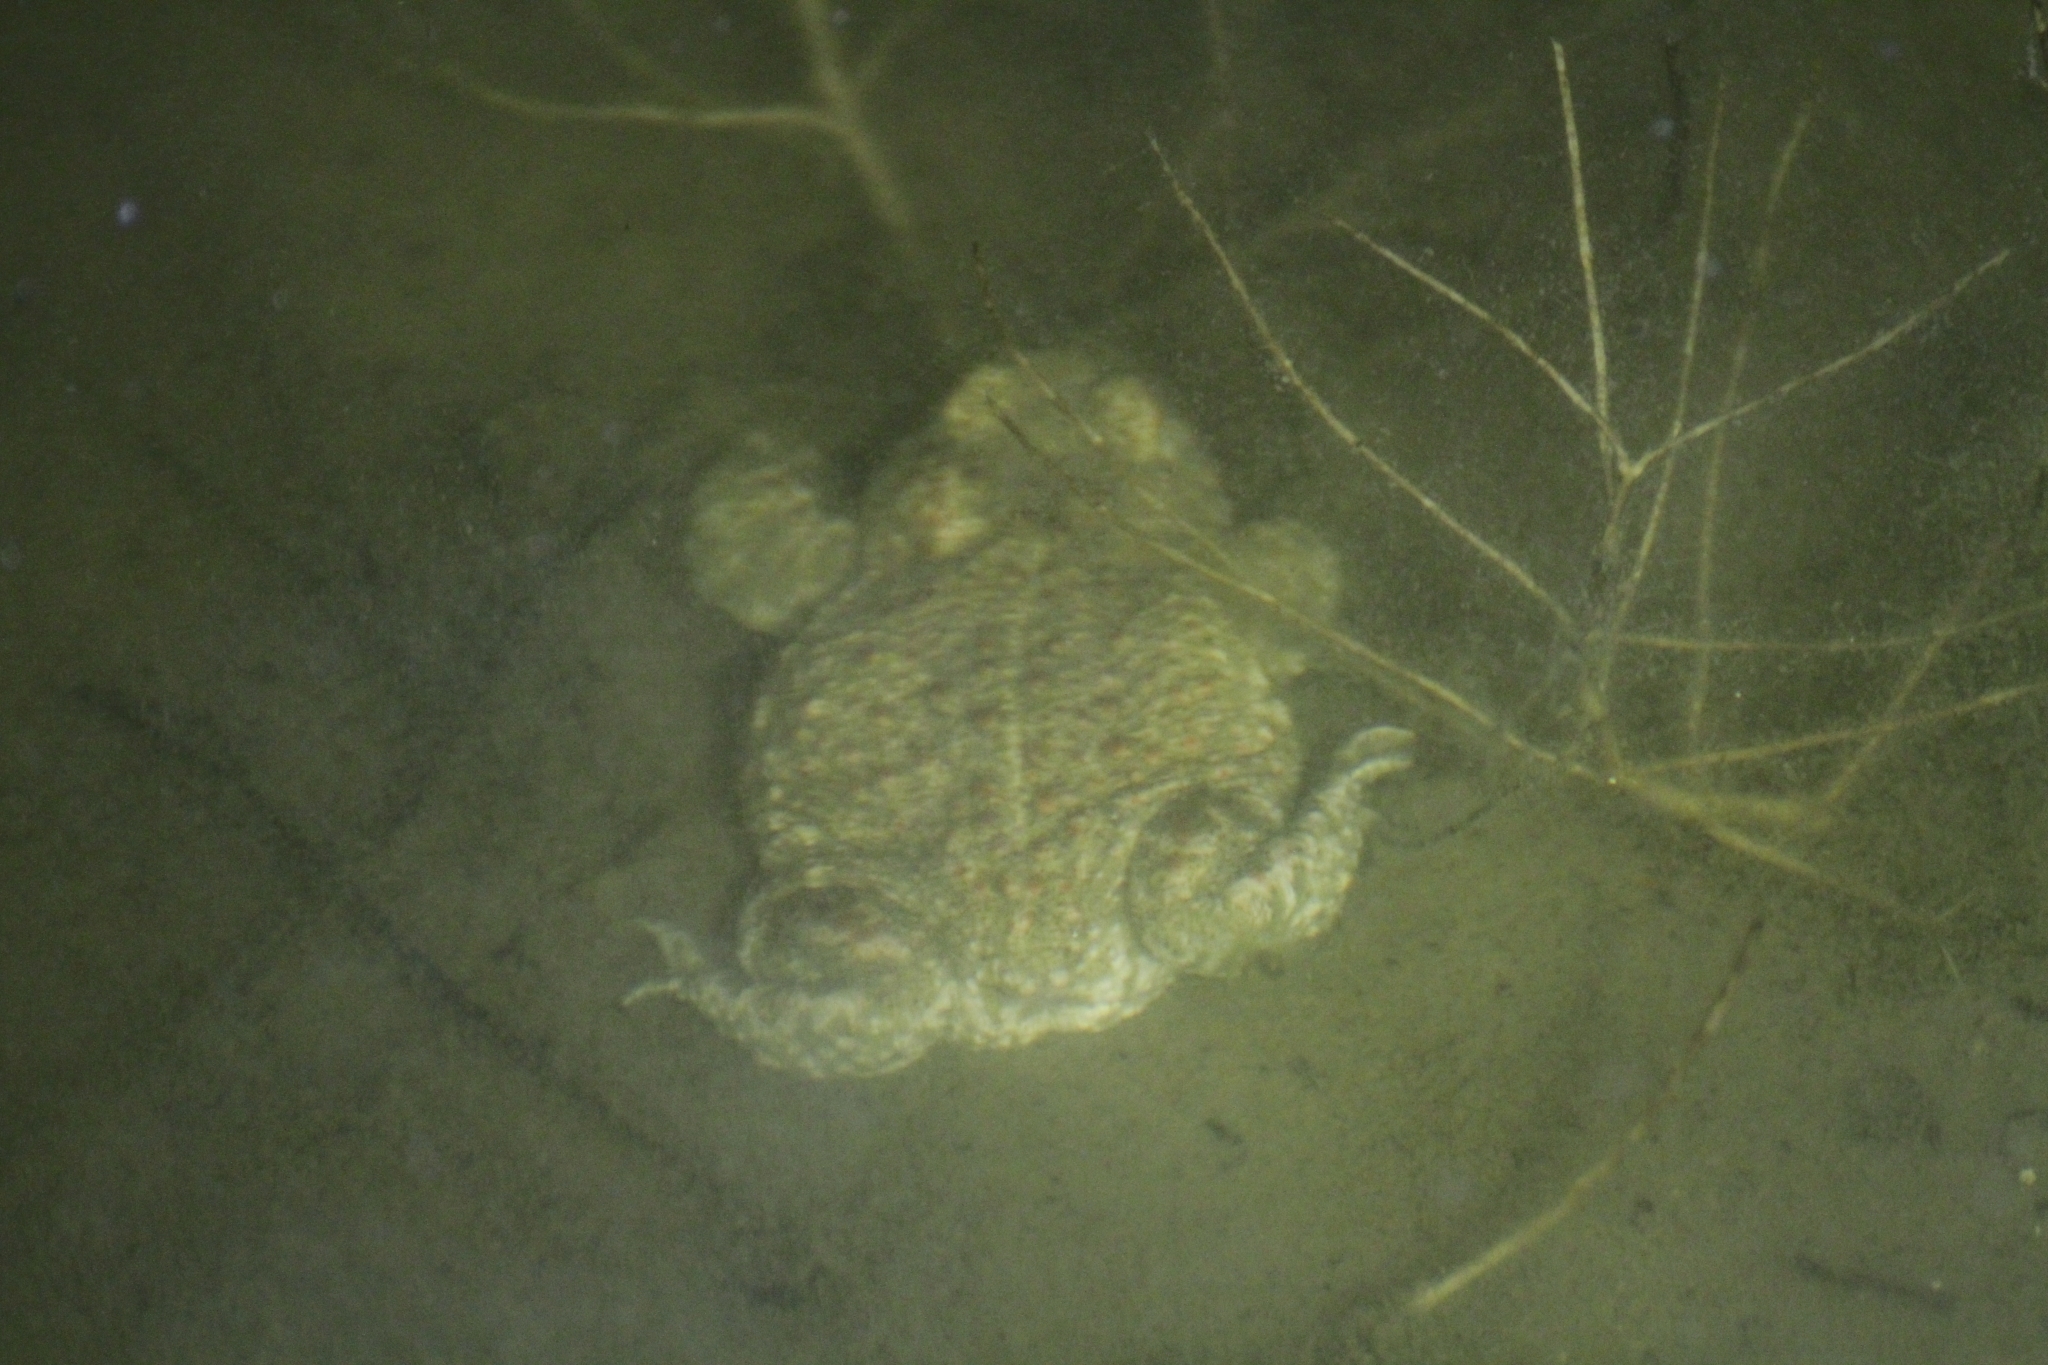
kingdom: Animalia
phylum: Chordata
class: Amphibia
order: Anura
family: Bufonidae
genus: Epidalea
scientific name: Epidalea calamita
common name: Natterjack toad
